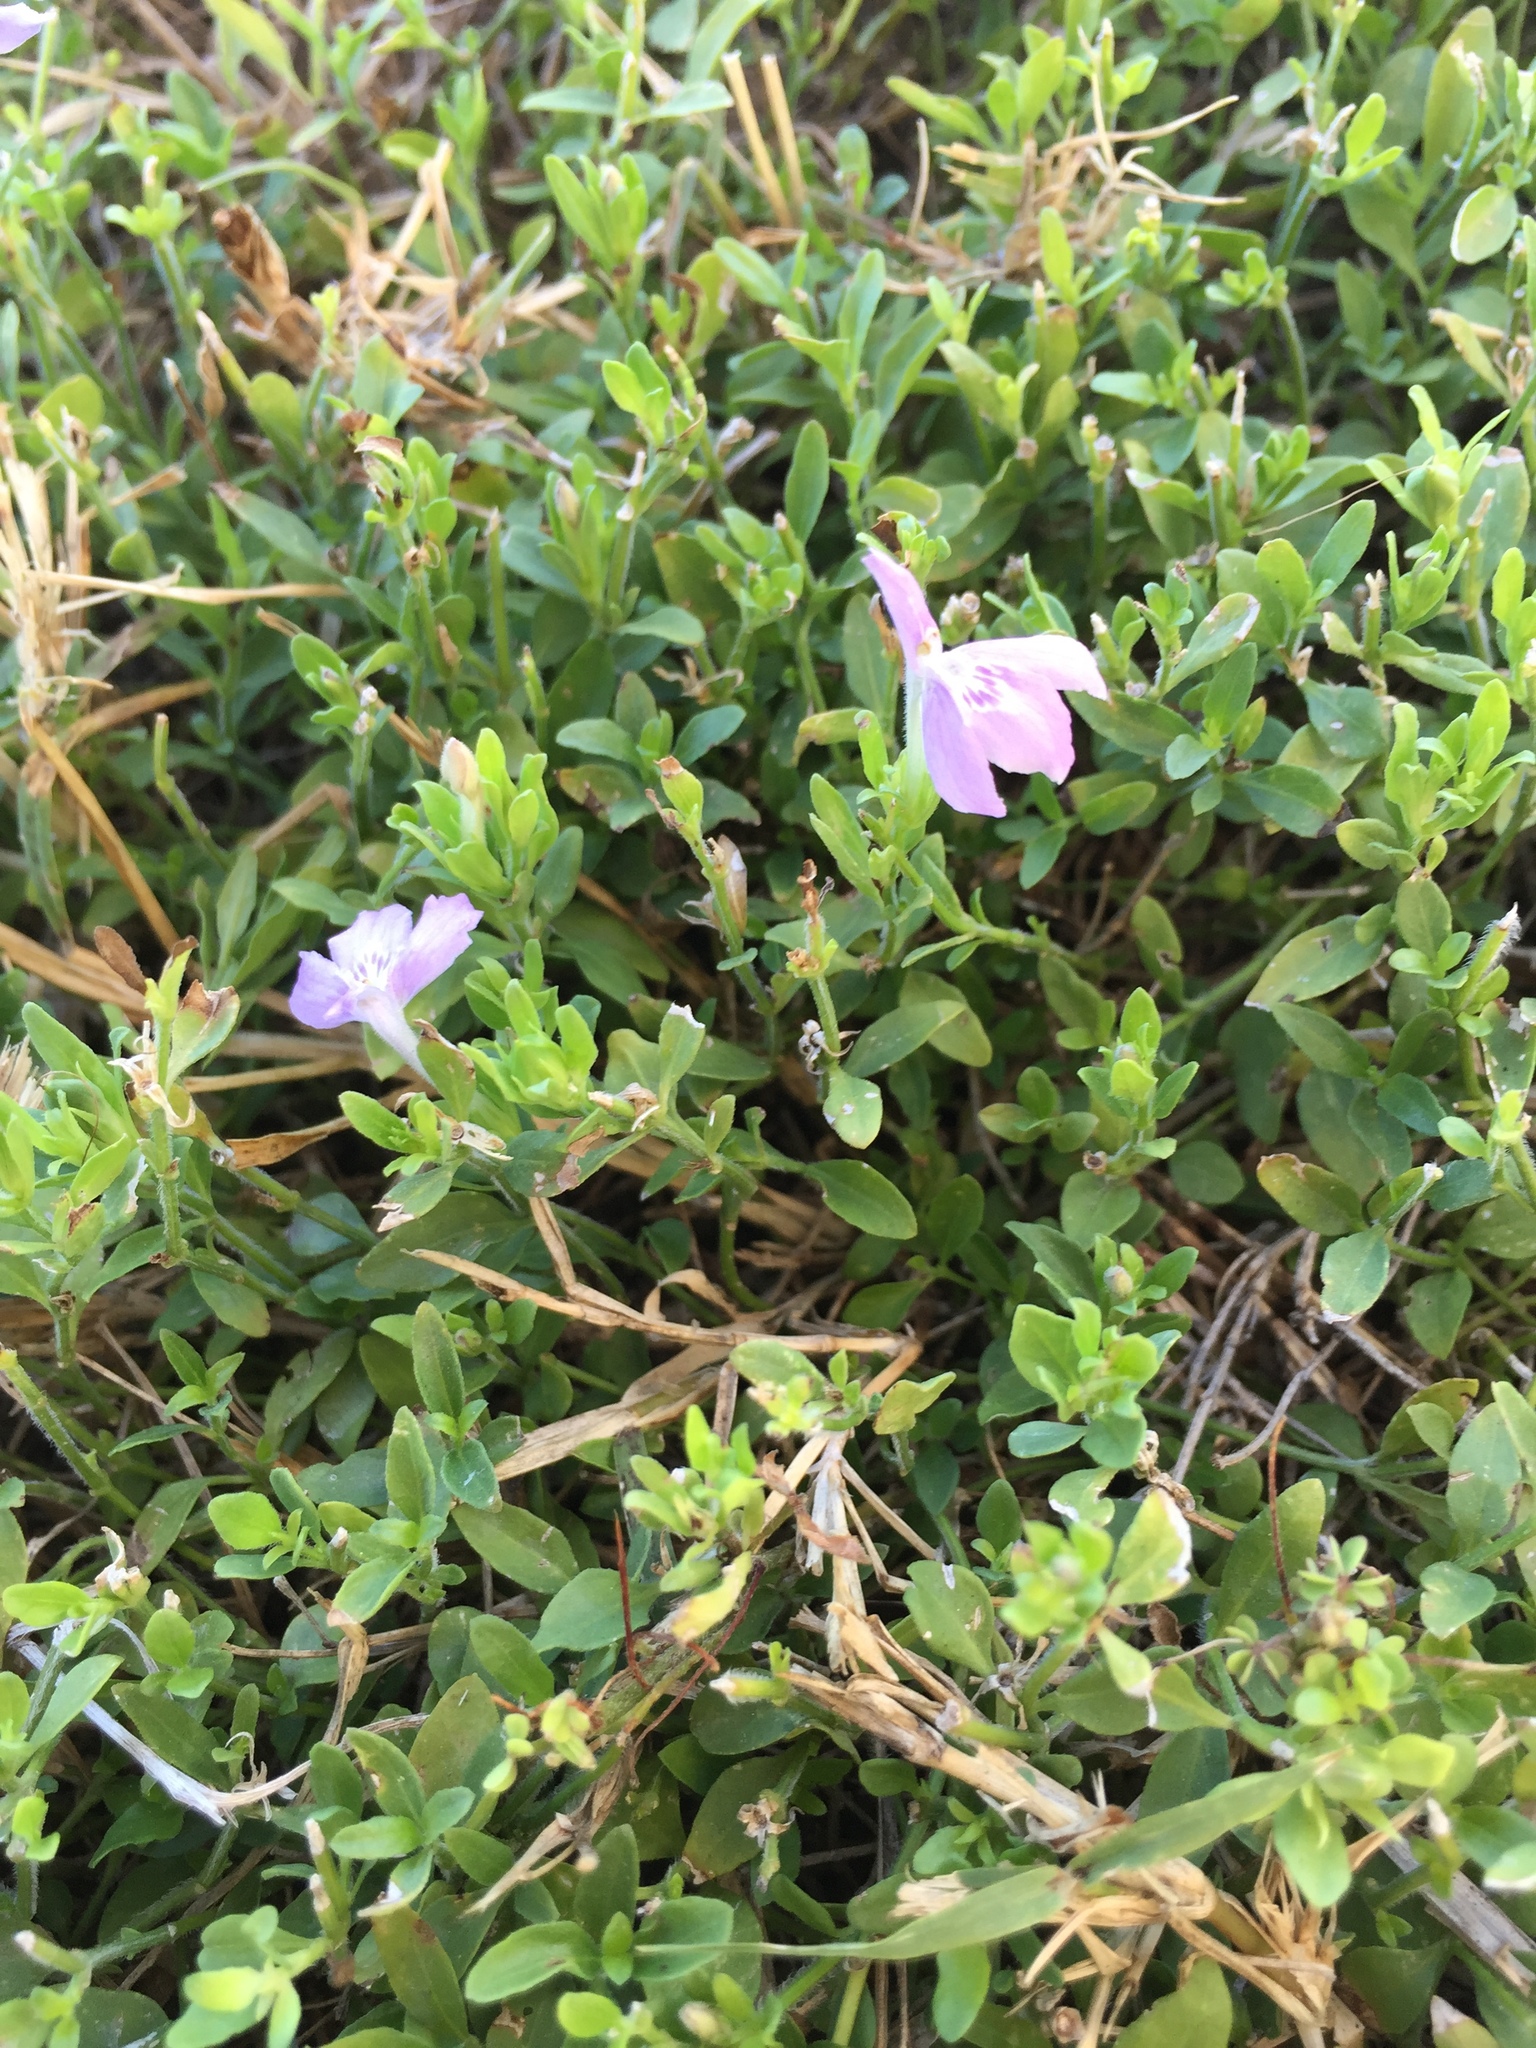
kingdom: Plantae
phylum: Tracheophyta
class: Magnoliopsida
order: Lamiales
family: Acanthaceae
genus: Justicia
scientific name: Justicia pilosella
